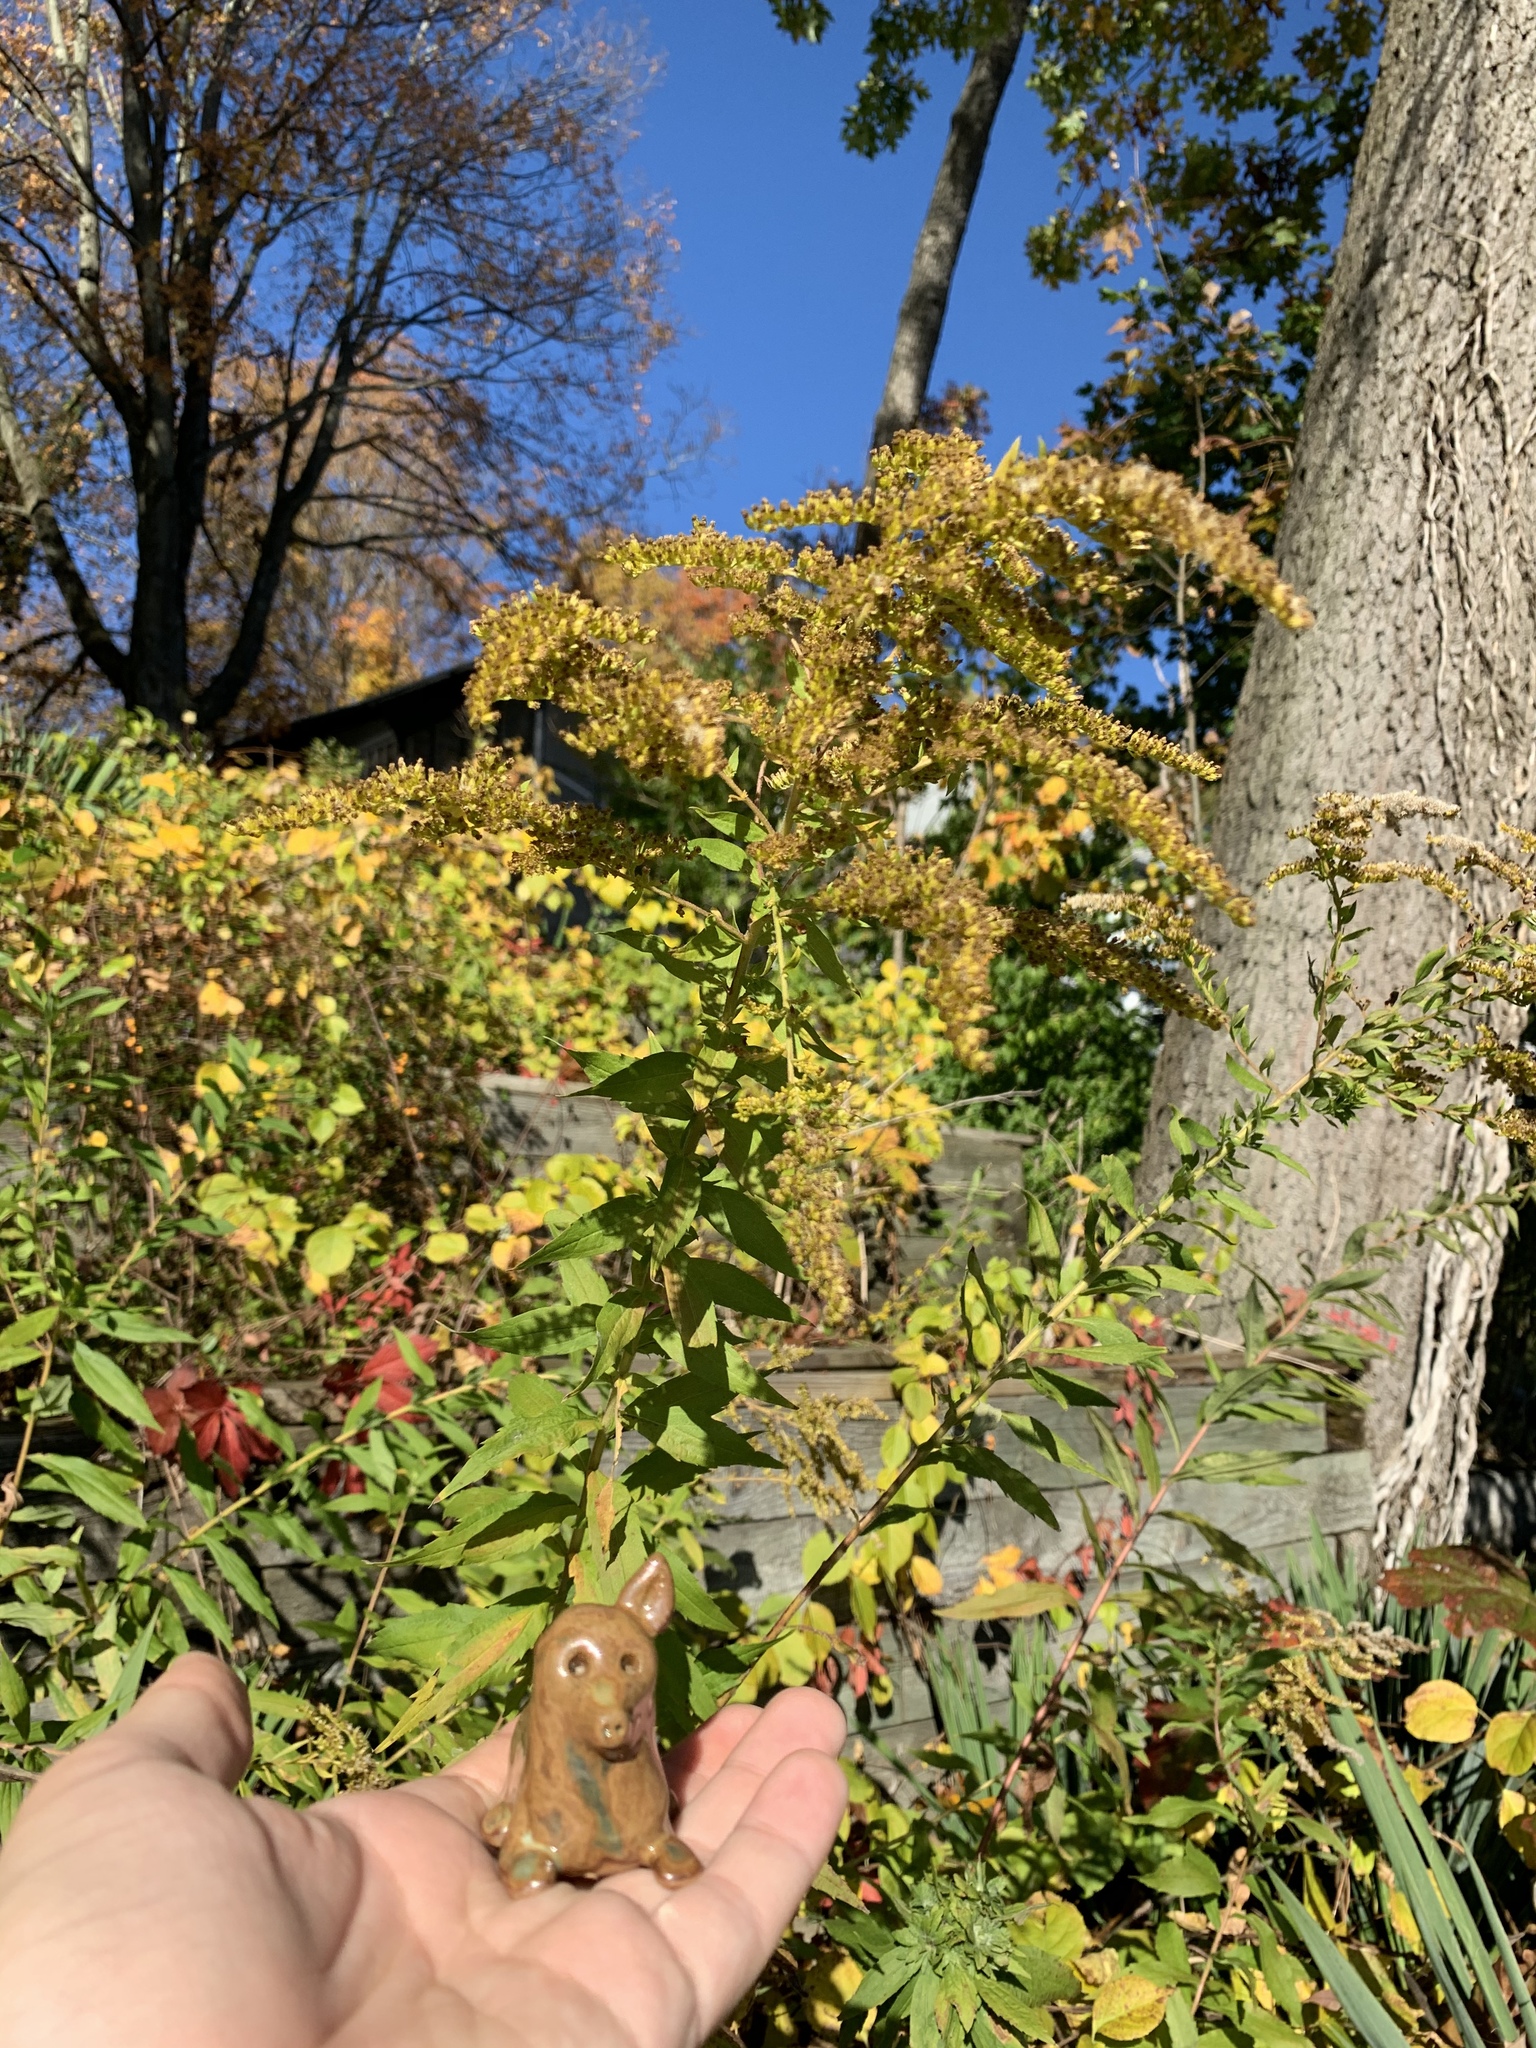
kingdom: Plantae
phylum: Tracheophyta
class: Magnoliopsida
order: Asterales
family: Asteraceae
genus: Solidago
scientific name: Solidago canadensis
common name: Canada goldenrod
